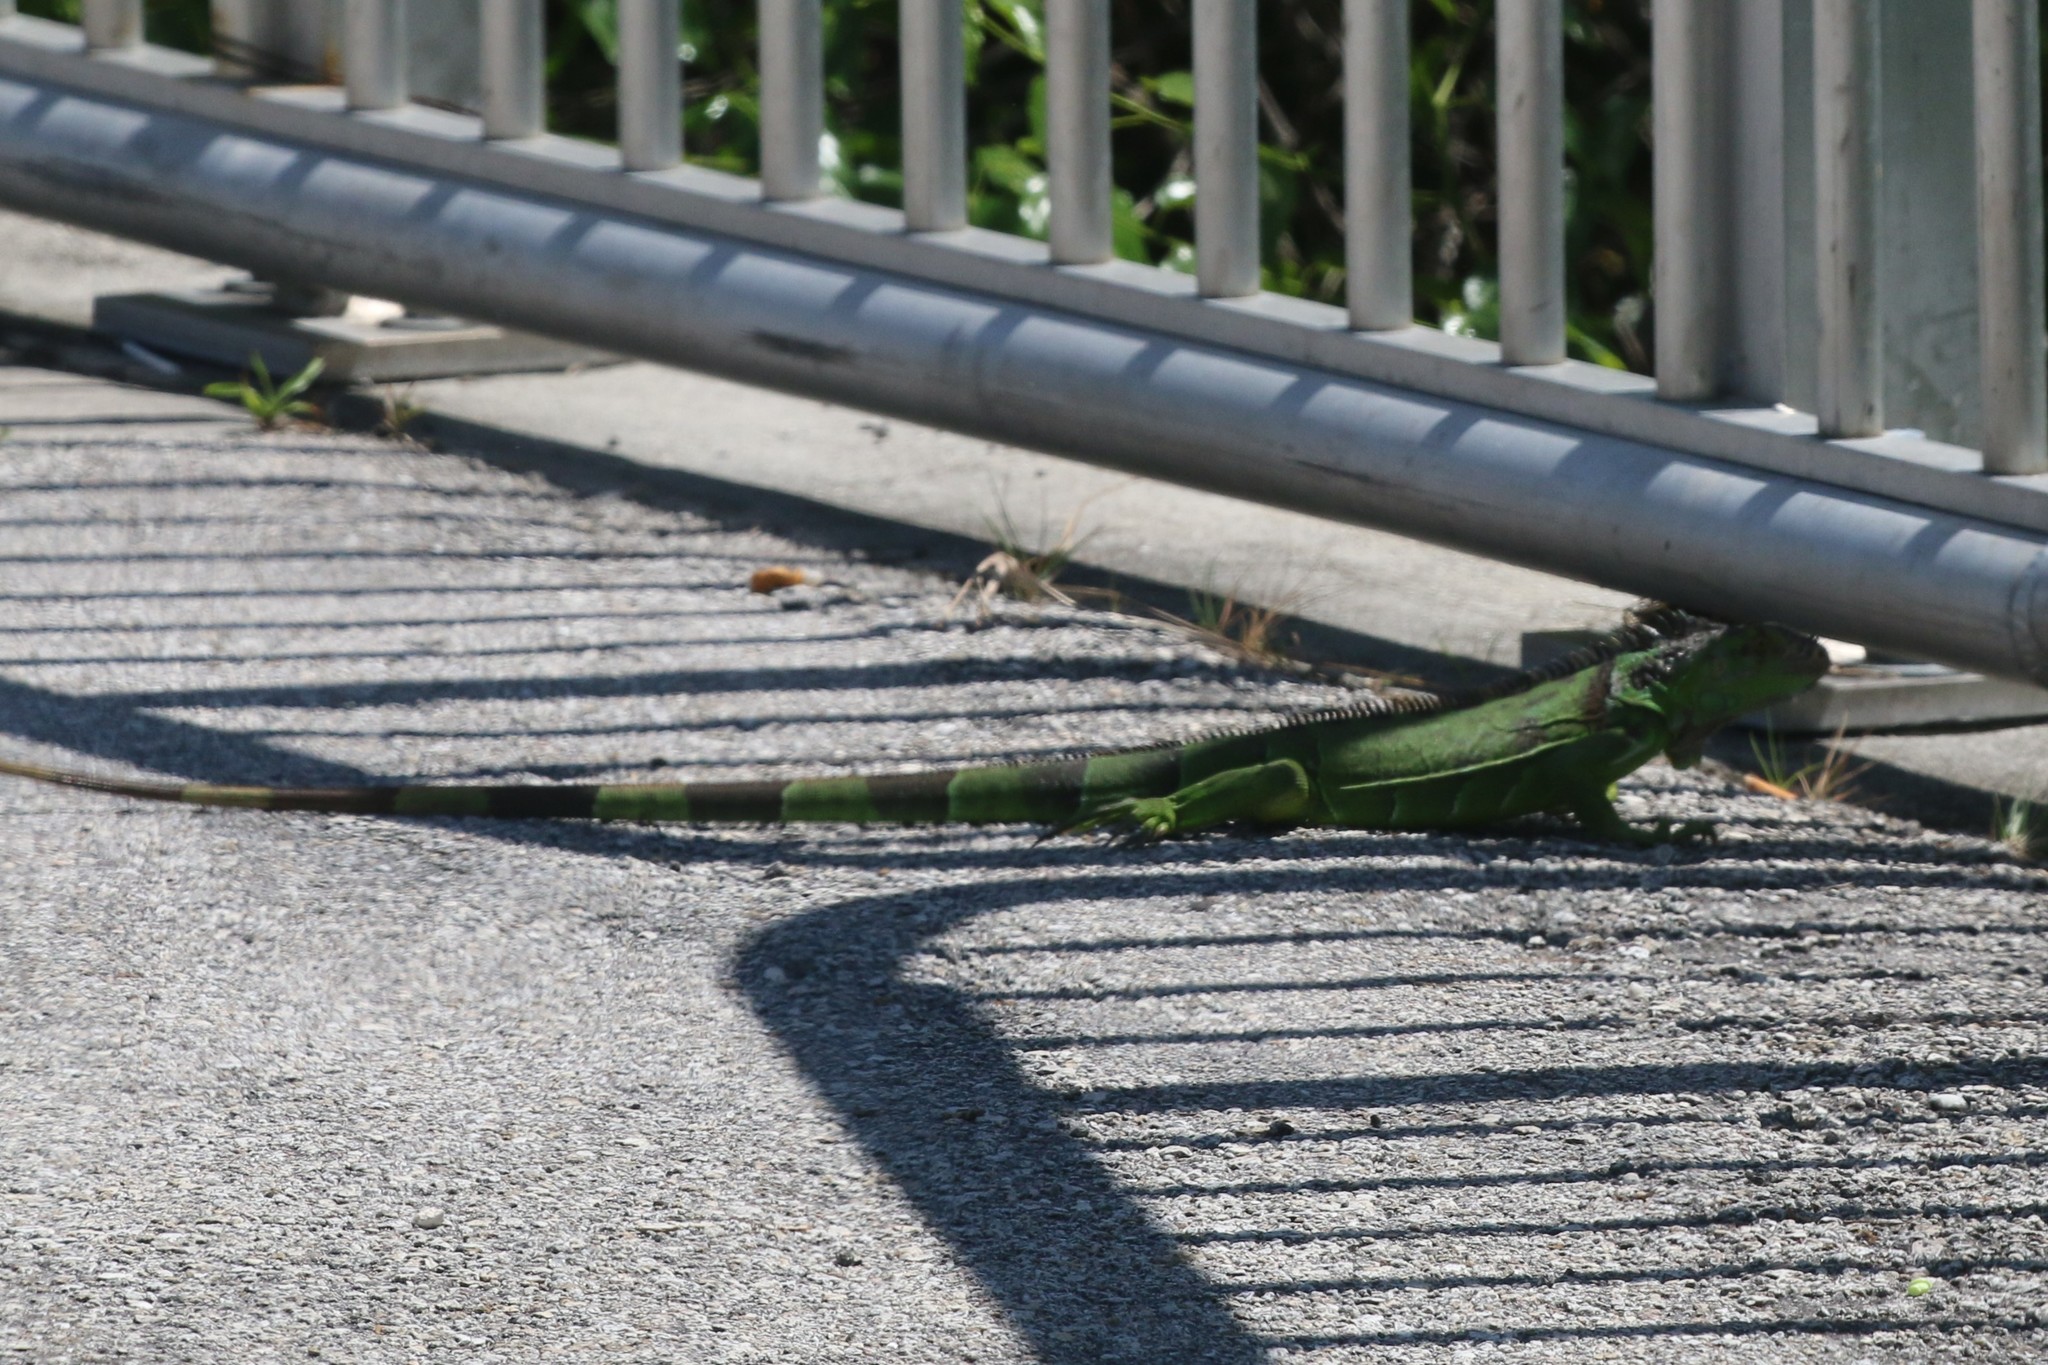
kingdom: Animalia
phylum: Chordata
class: Squamata
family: Iguanidae
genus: Iguana
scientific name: Iguana iguana
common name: Green iguana
